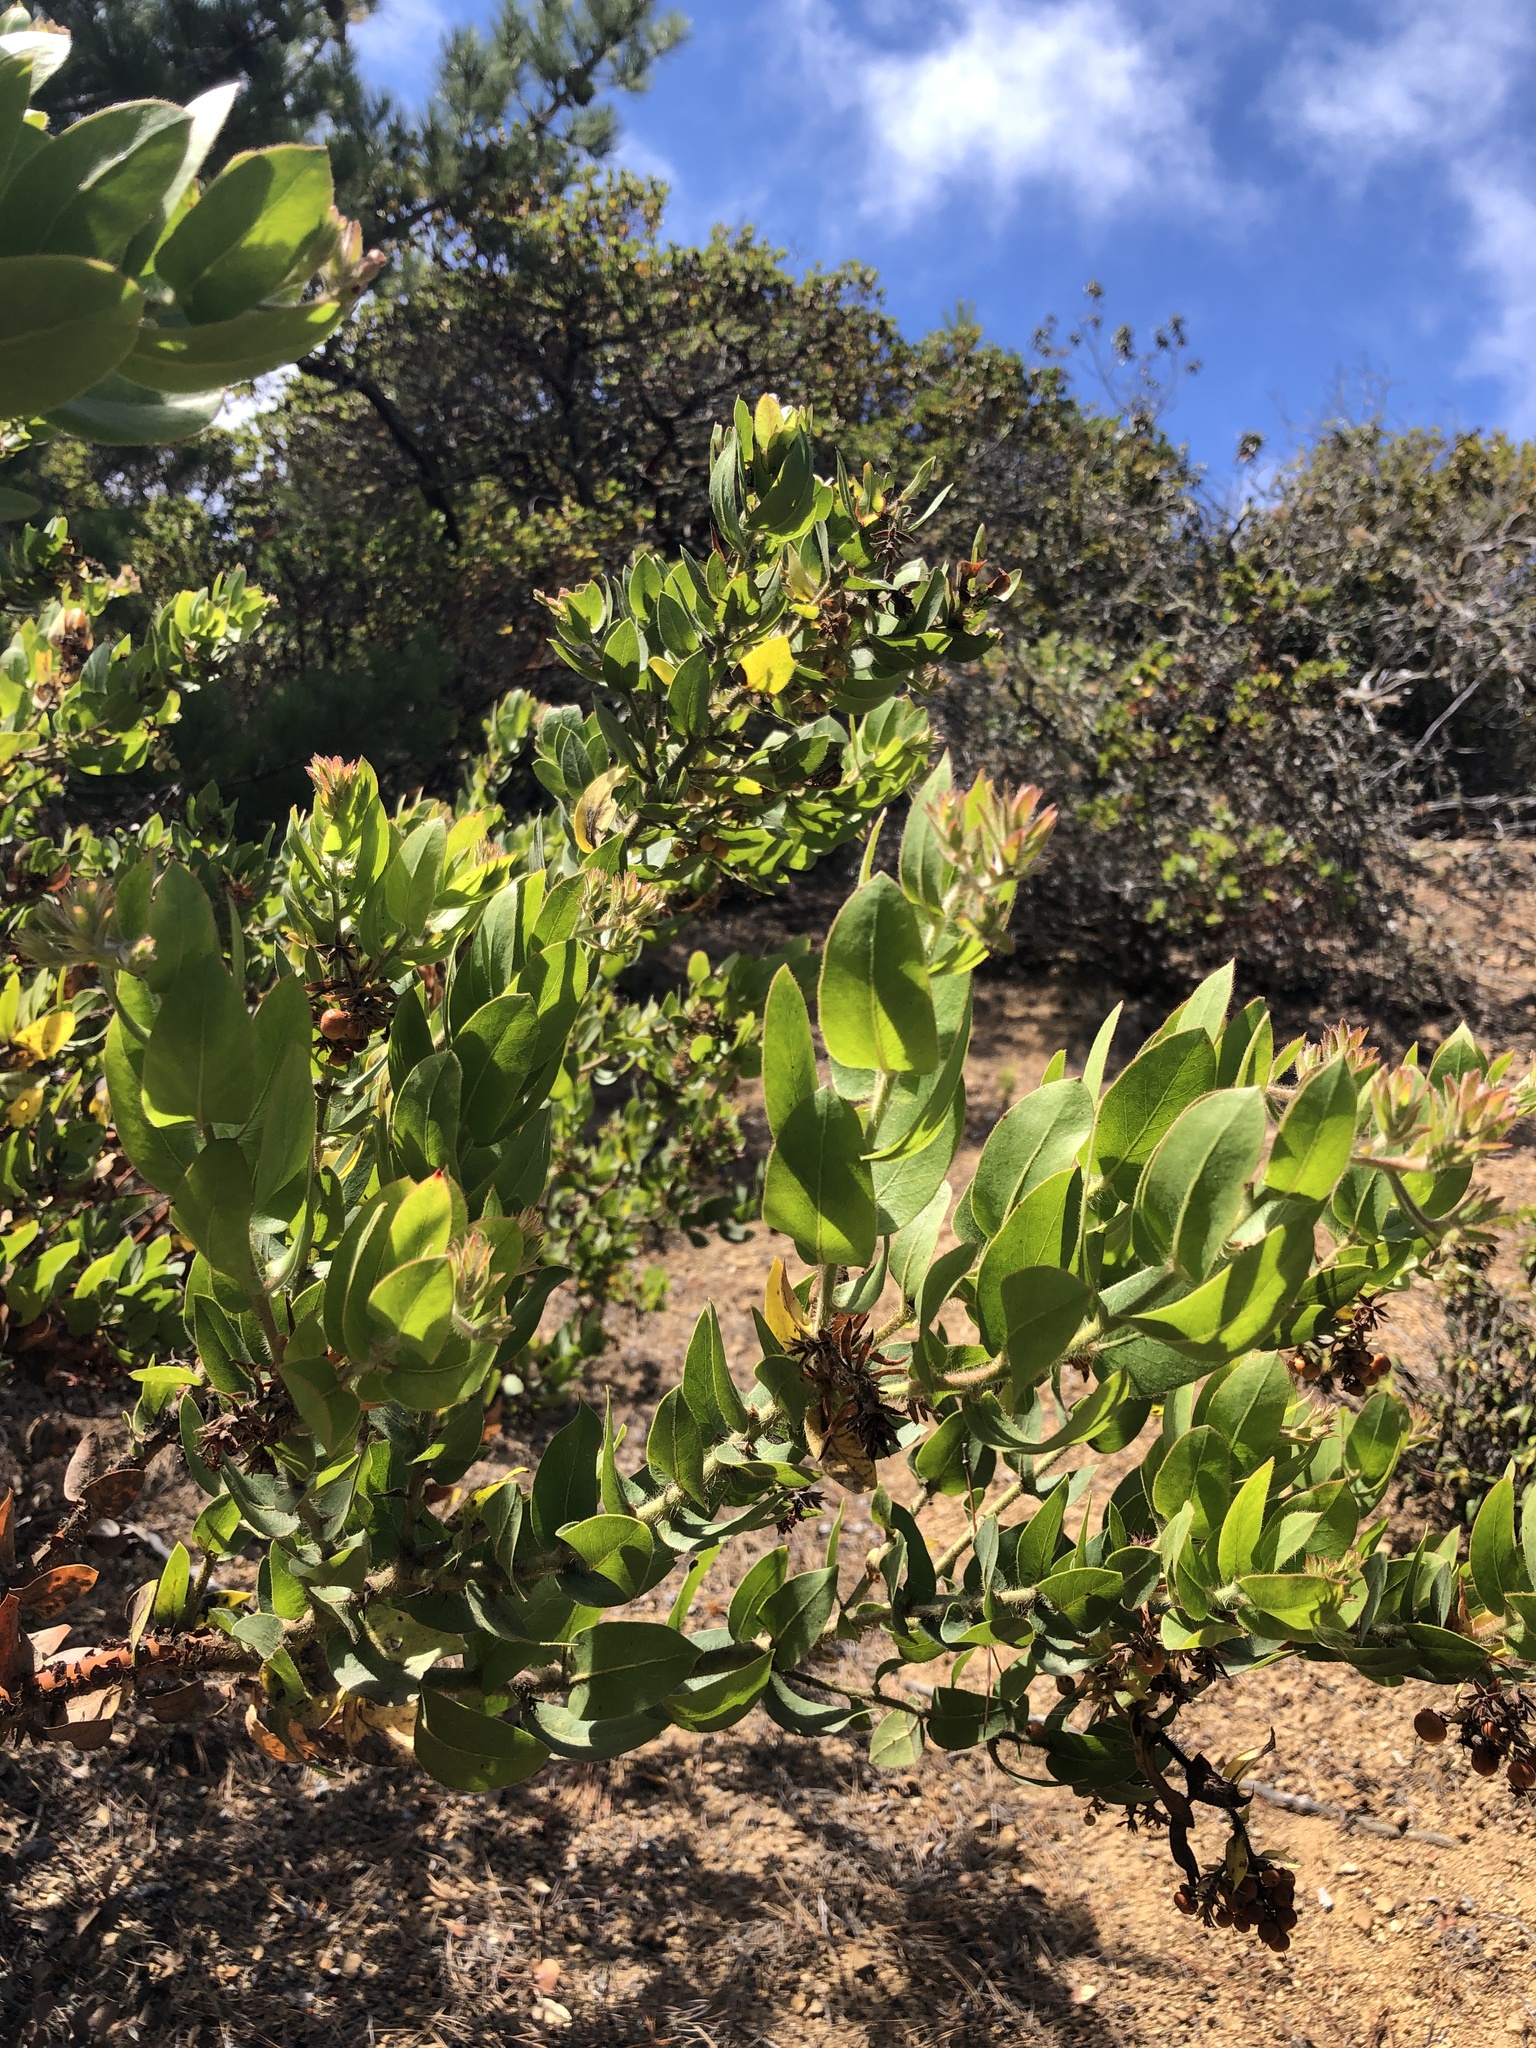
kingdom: Plantae
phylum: Tracheophyta
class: Magnoliopsida
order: Ericales
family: Ericaceae
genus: Arctostaphylos
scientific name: Arctostaphylos montaraensis
